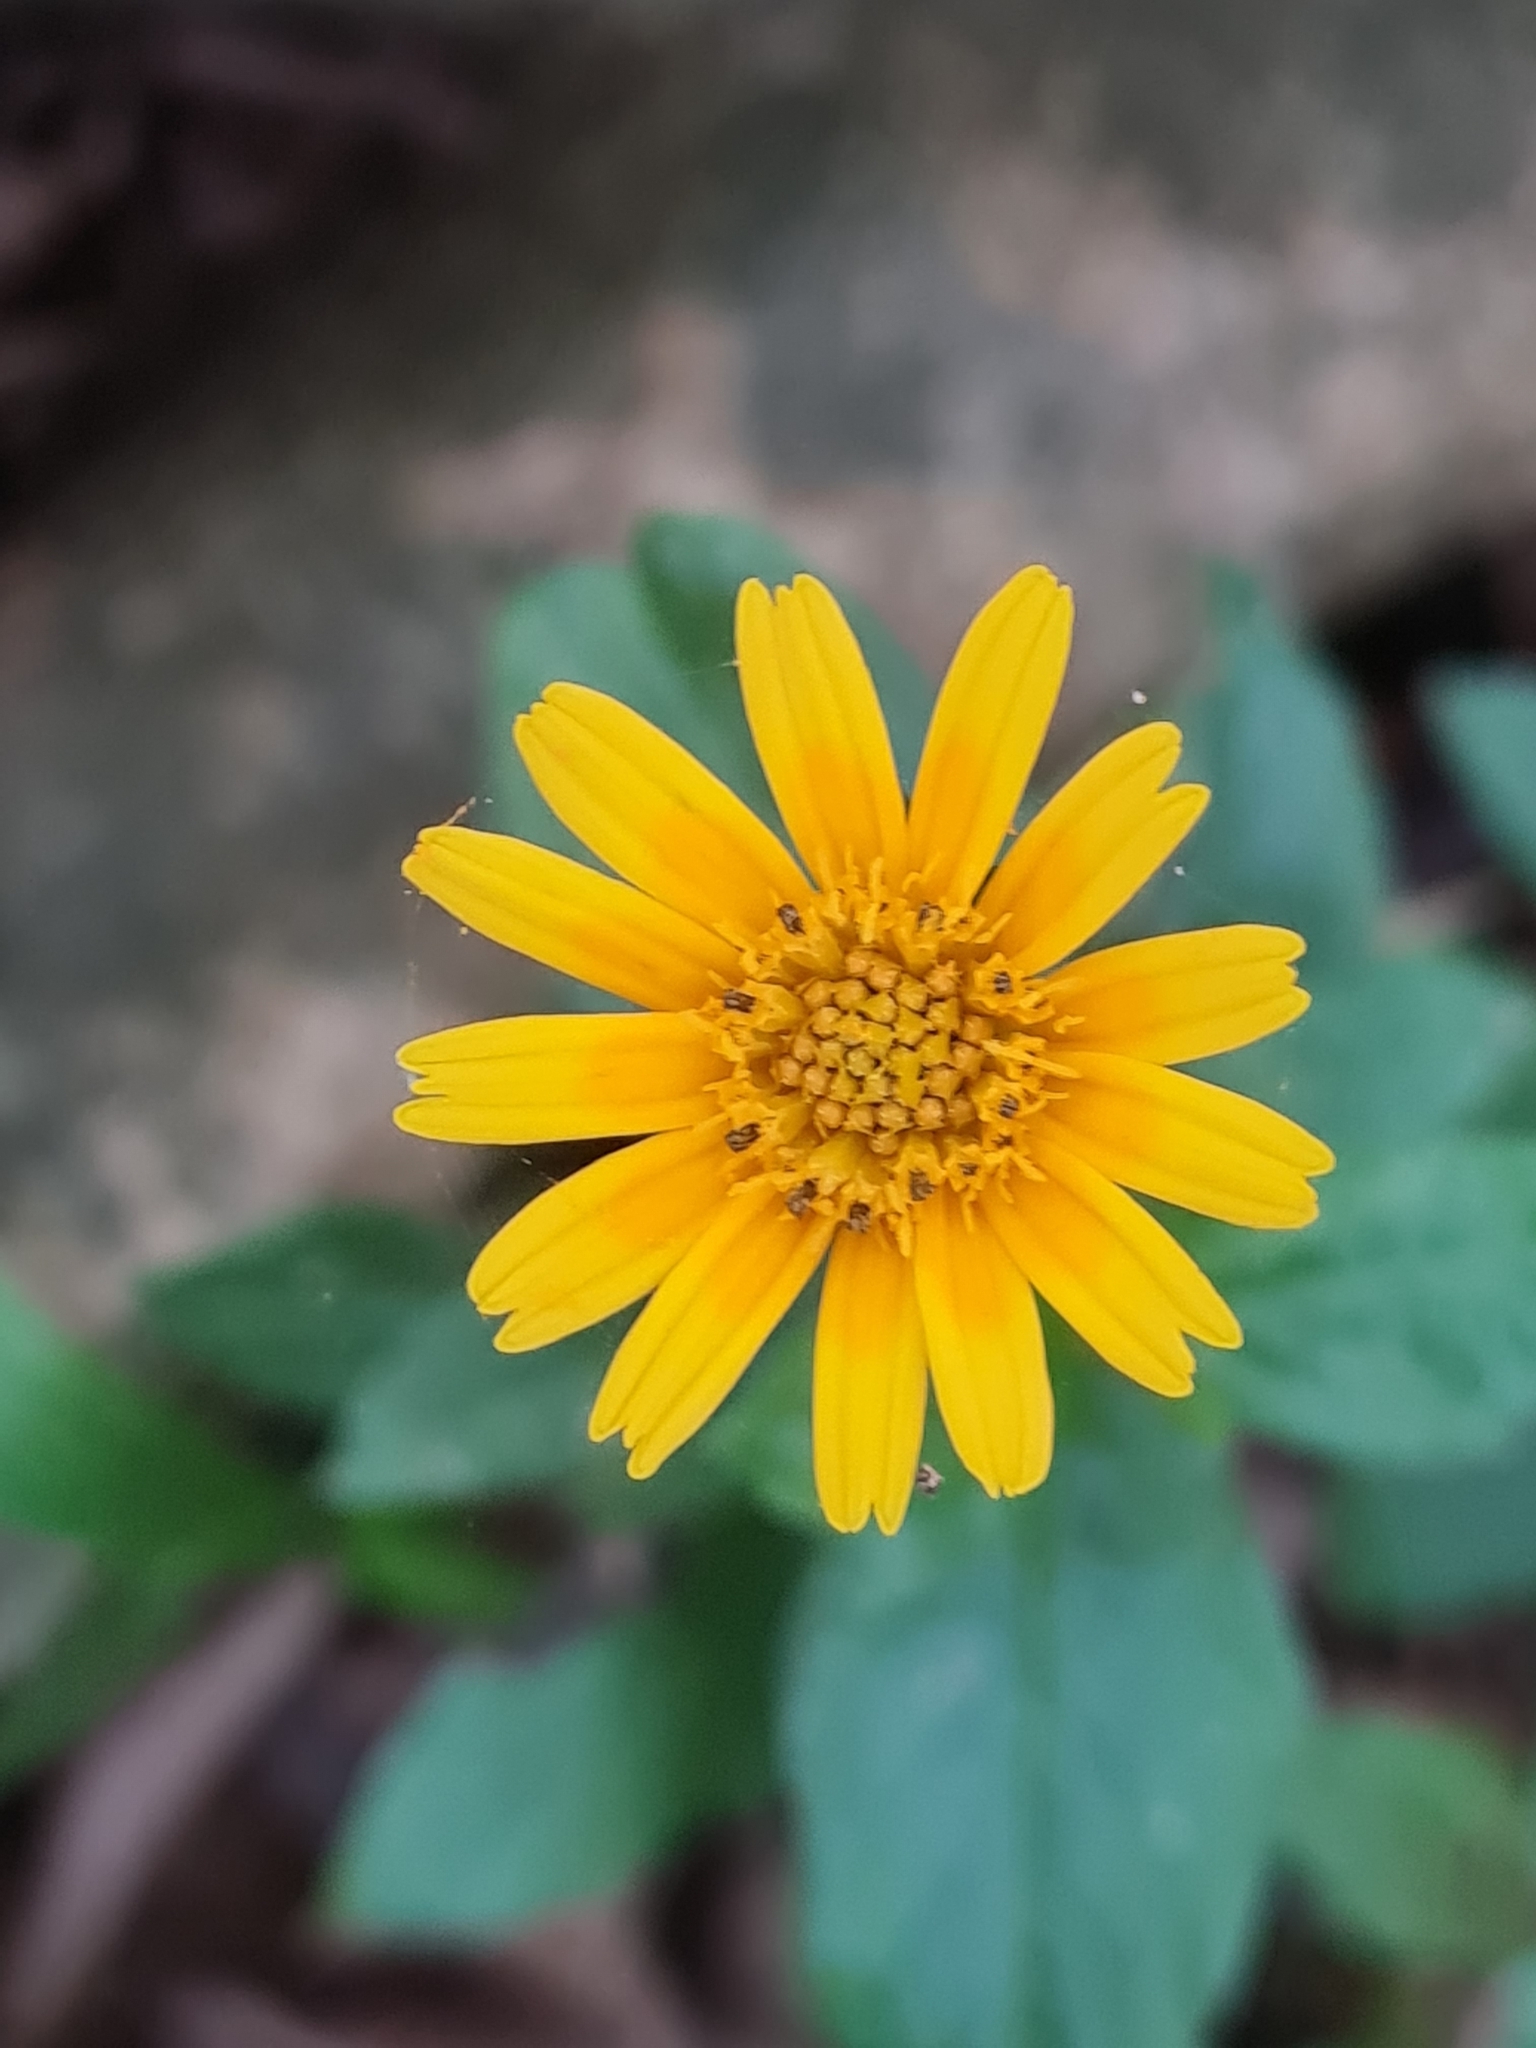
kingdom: Plantae
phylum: Tracheophyta
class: Magnoliopsida
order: Asterales
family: Asteraceae
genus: Sphagneticola
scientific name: Sphagneticola trilobata
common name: Bay biscayne creeping-oxeye
